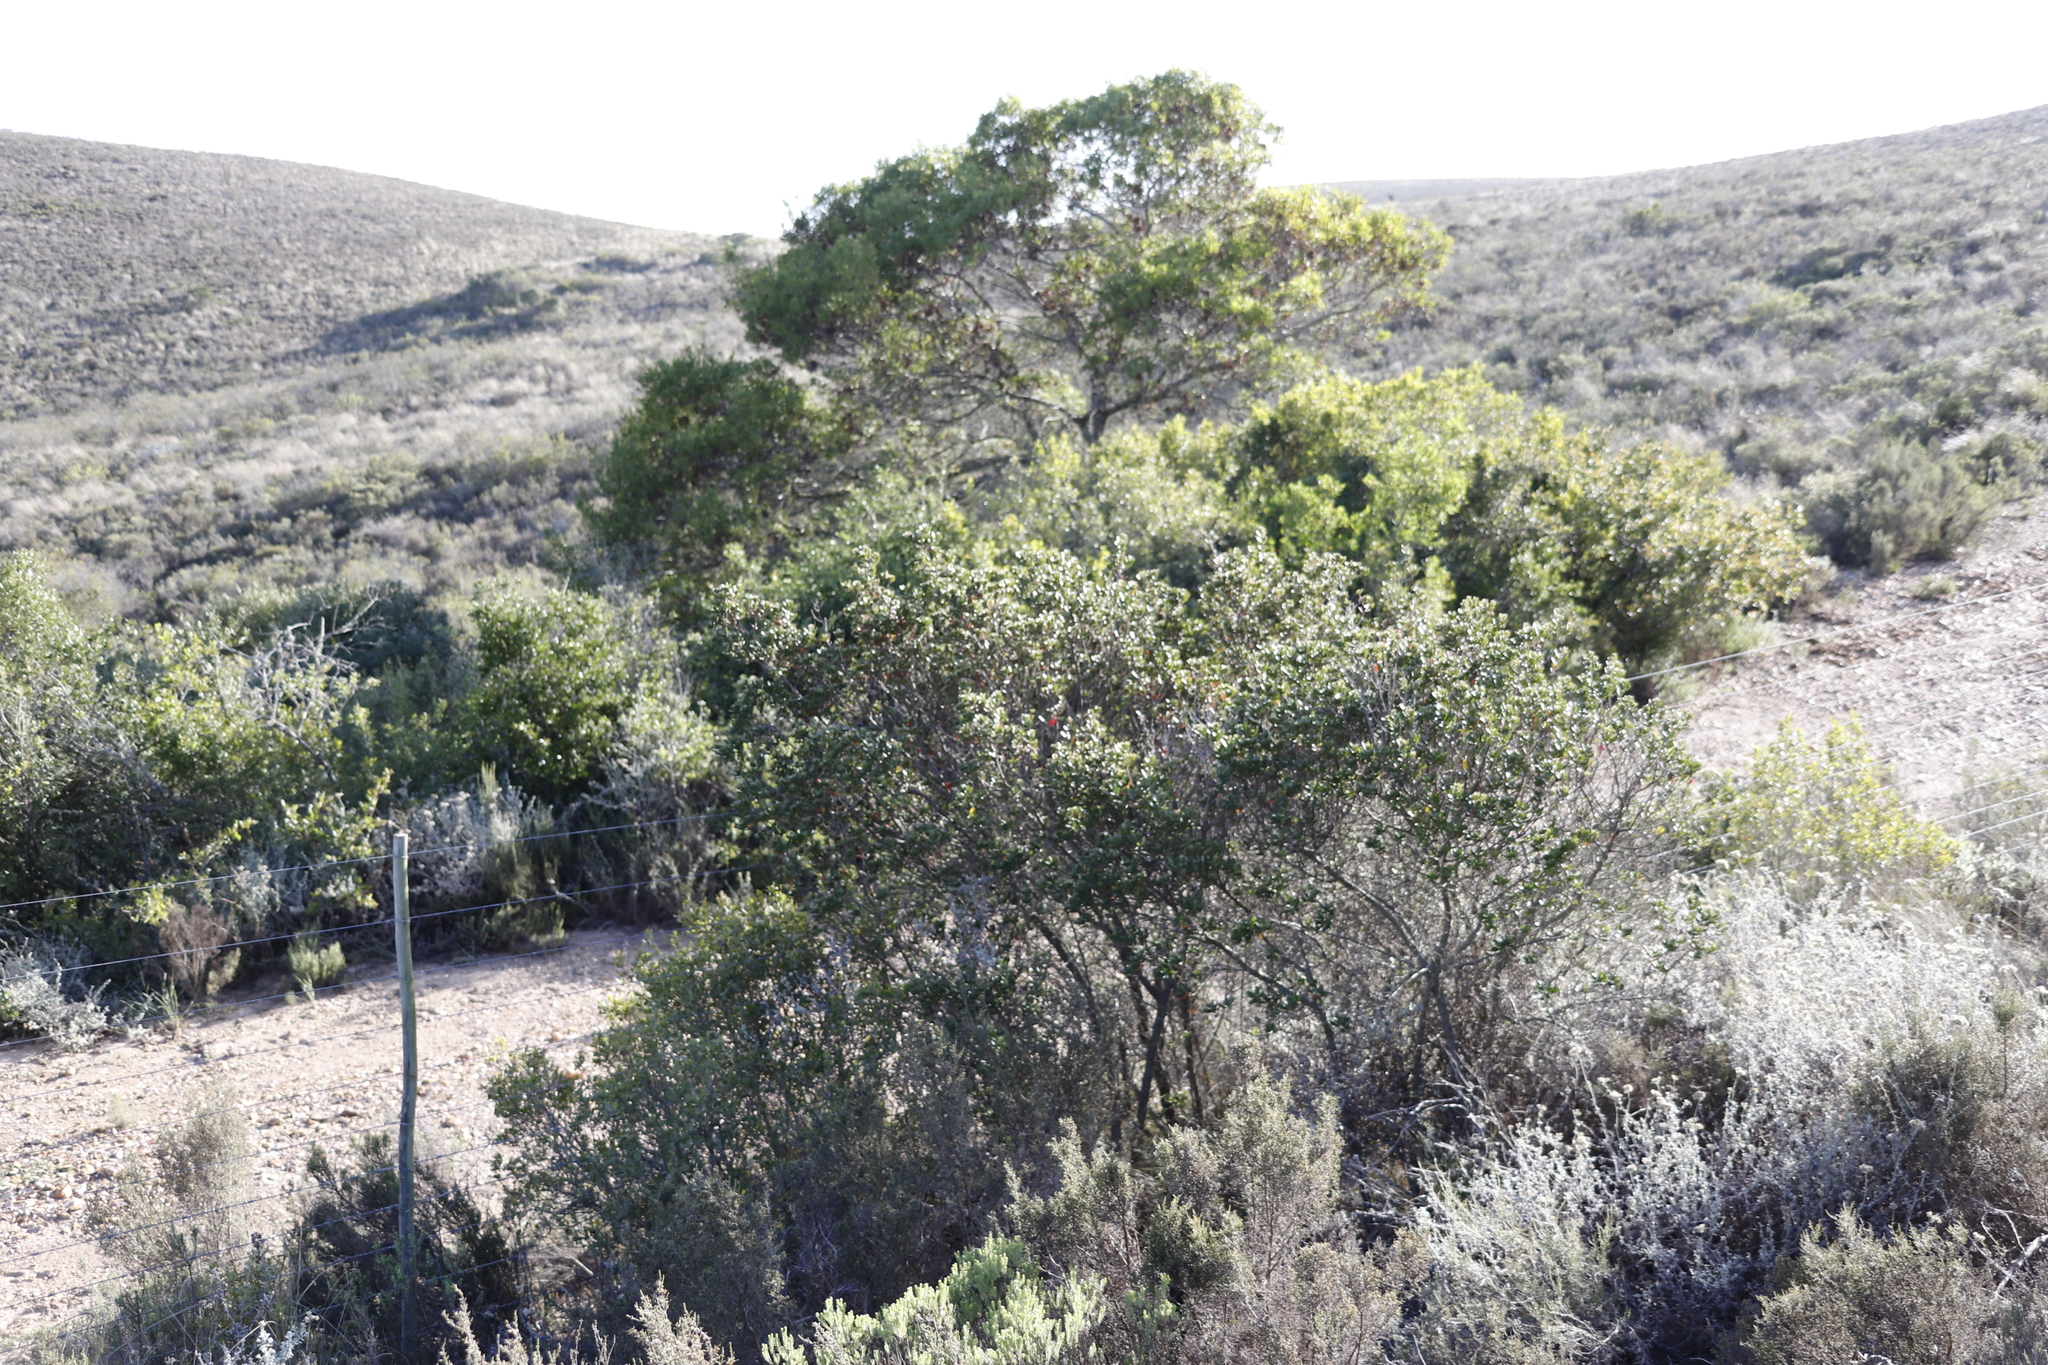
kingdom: Plantae
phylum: Tracheophyta
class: Magnoliopsida
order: Fabales
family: Fabaceae
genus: Acacia
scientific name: Acacia cyclops
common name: Coastal wattle
